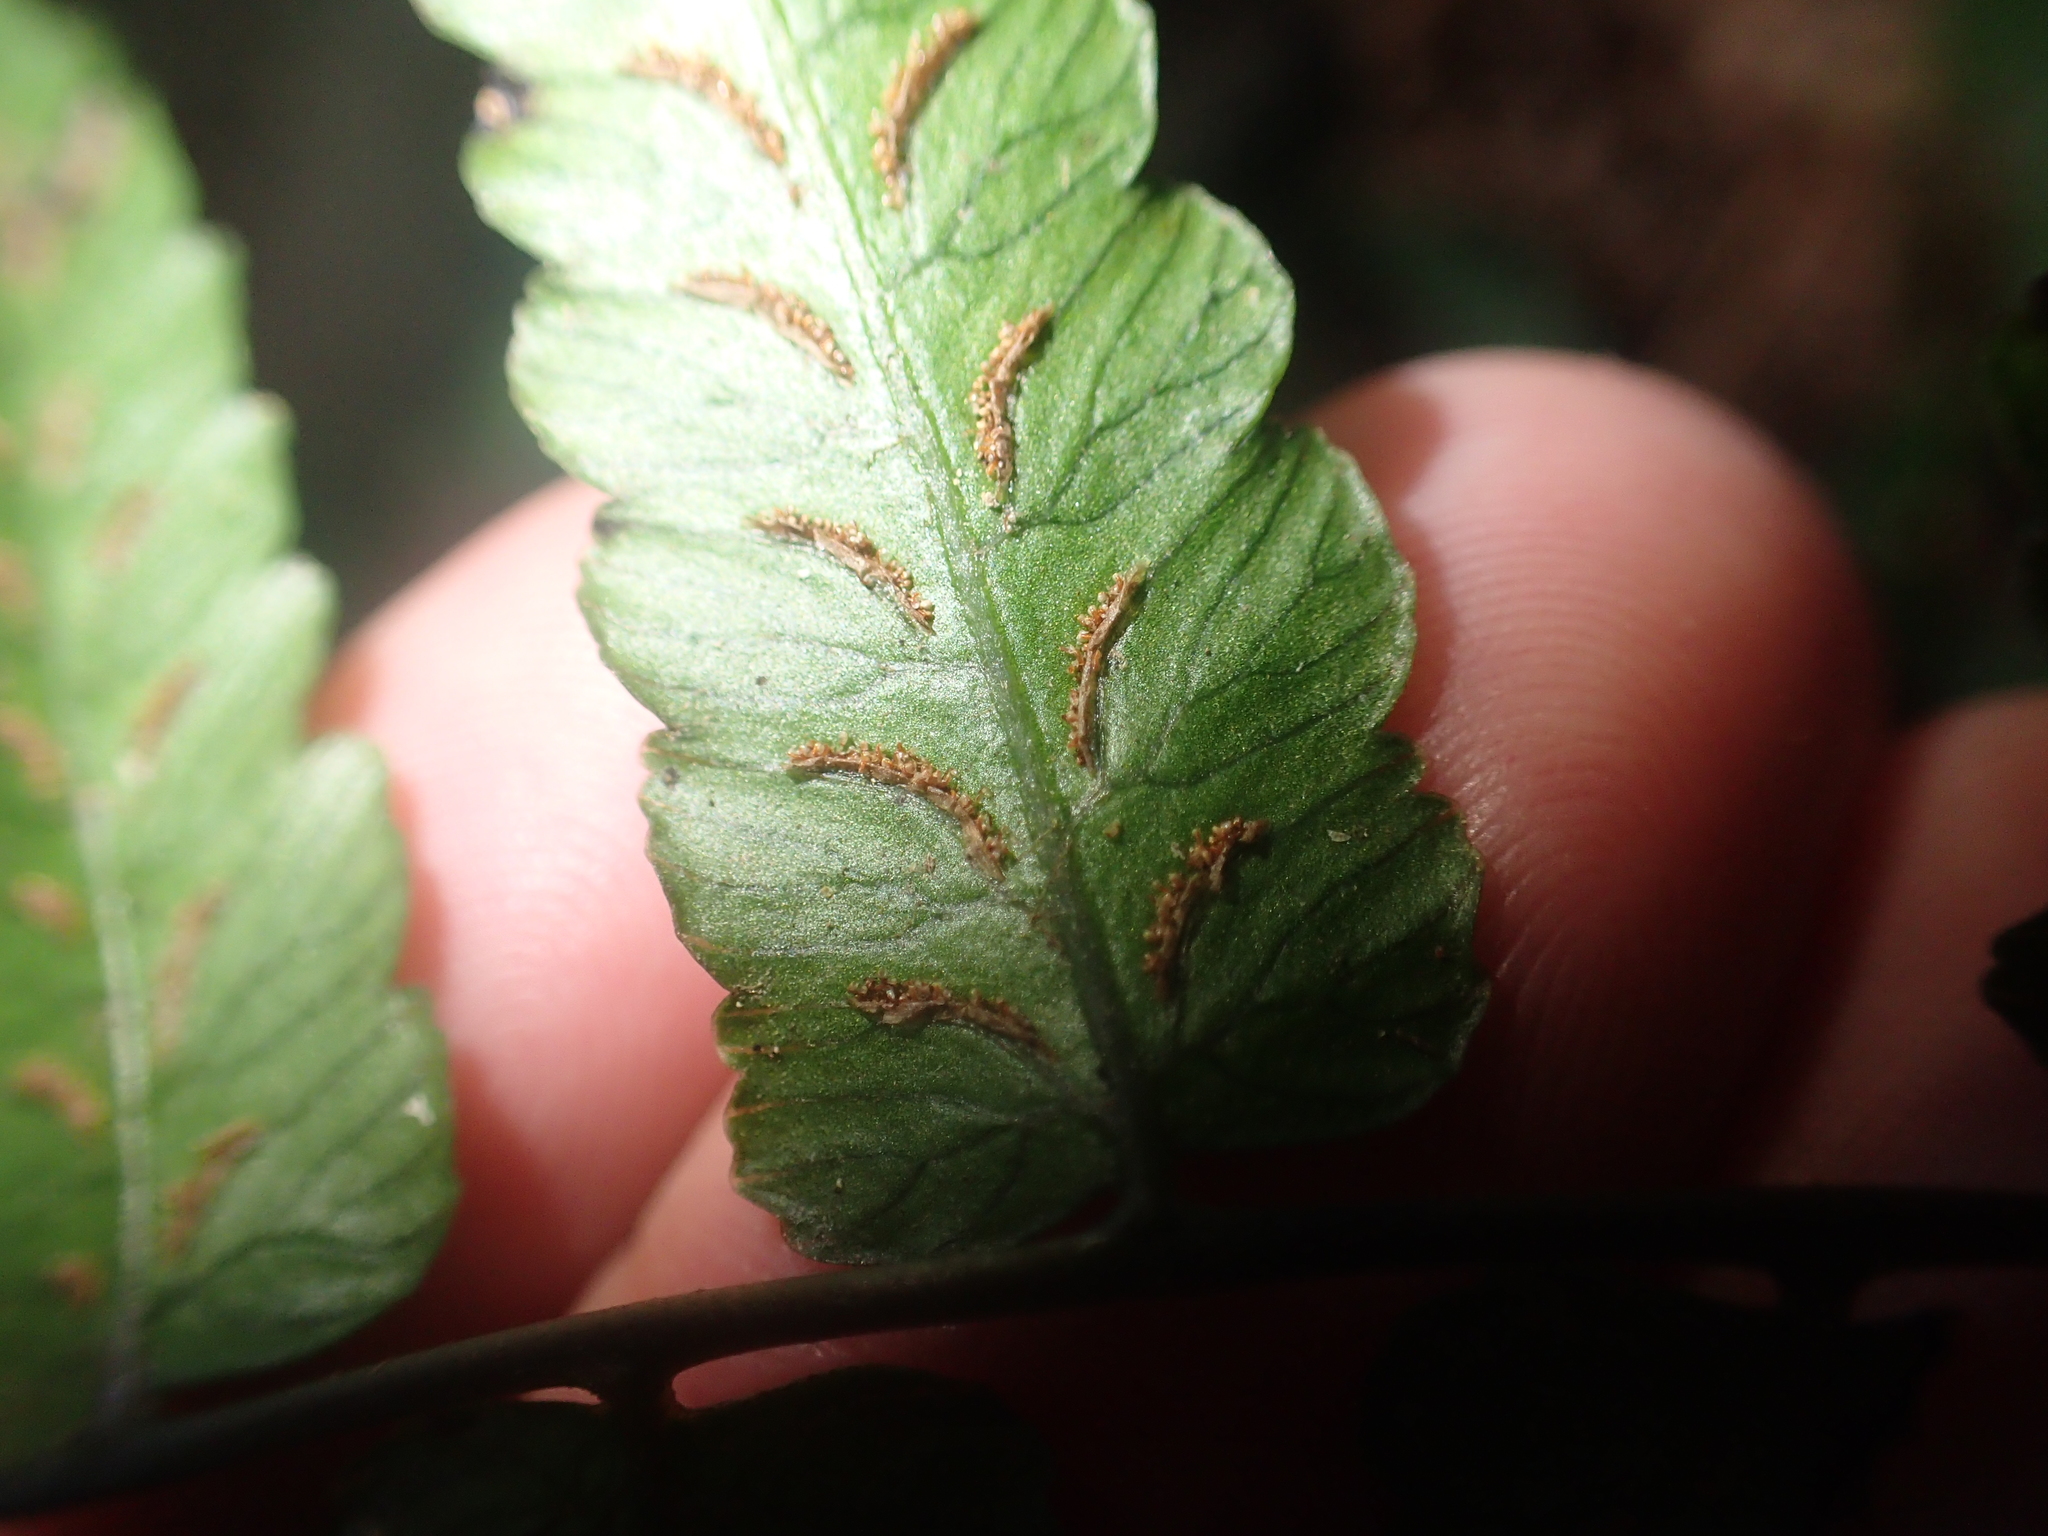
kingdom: Plantae
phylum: Tracheophyta
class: Polypodiopsida
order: Polypodiales
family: Athyriaceae
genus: Diplazium
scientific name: Diplazium mettenianum
